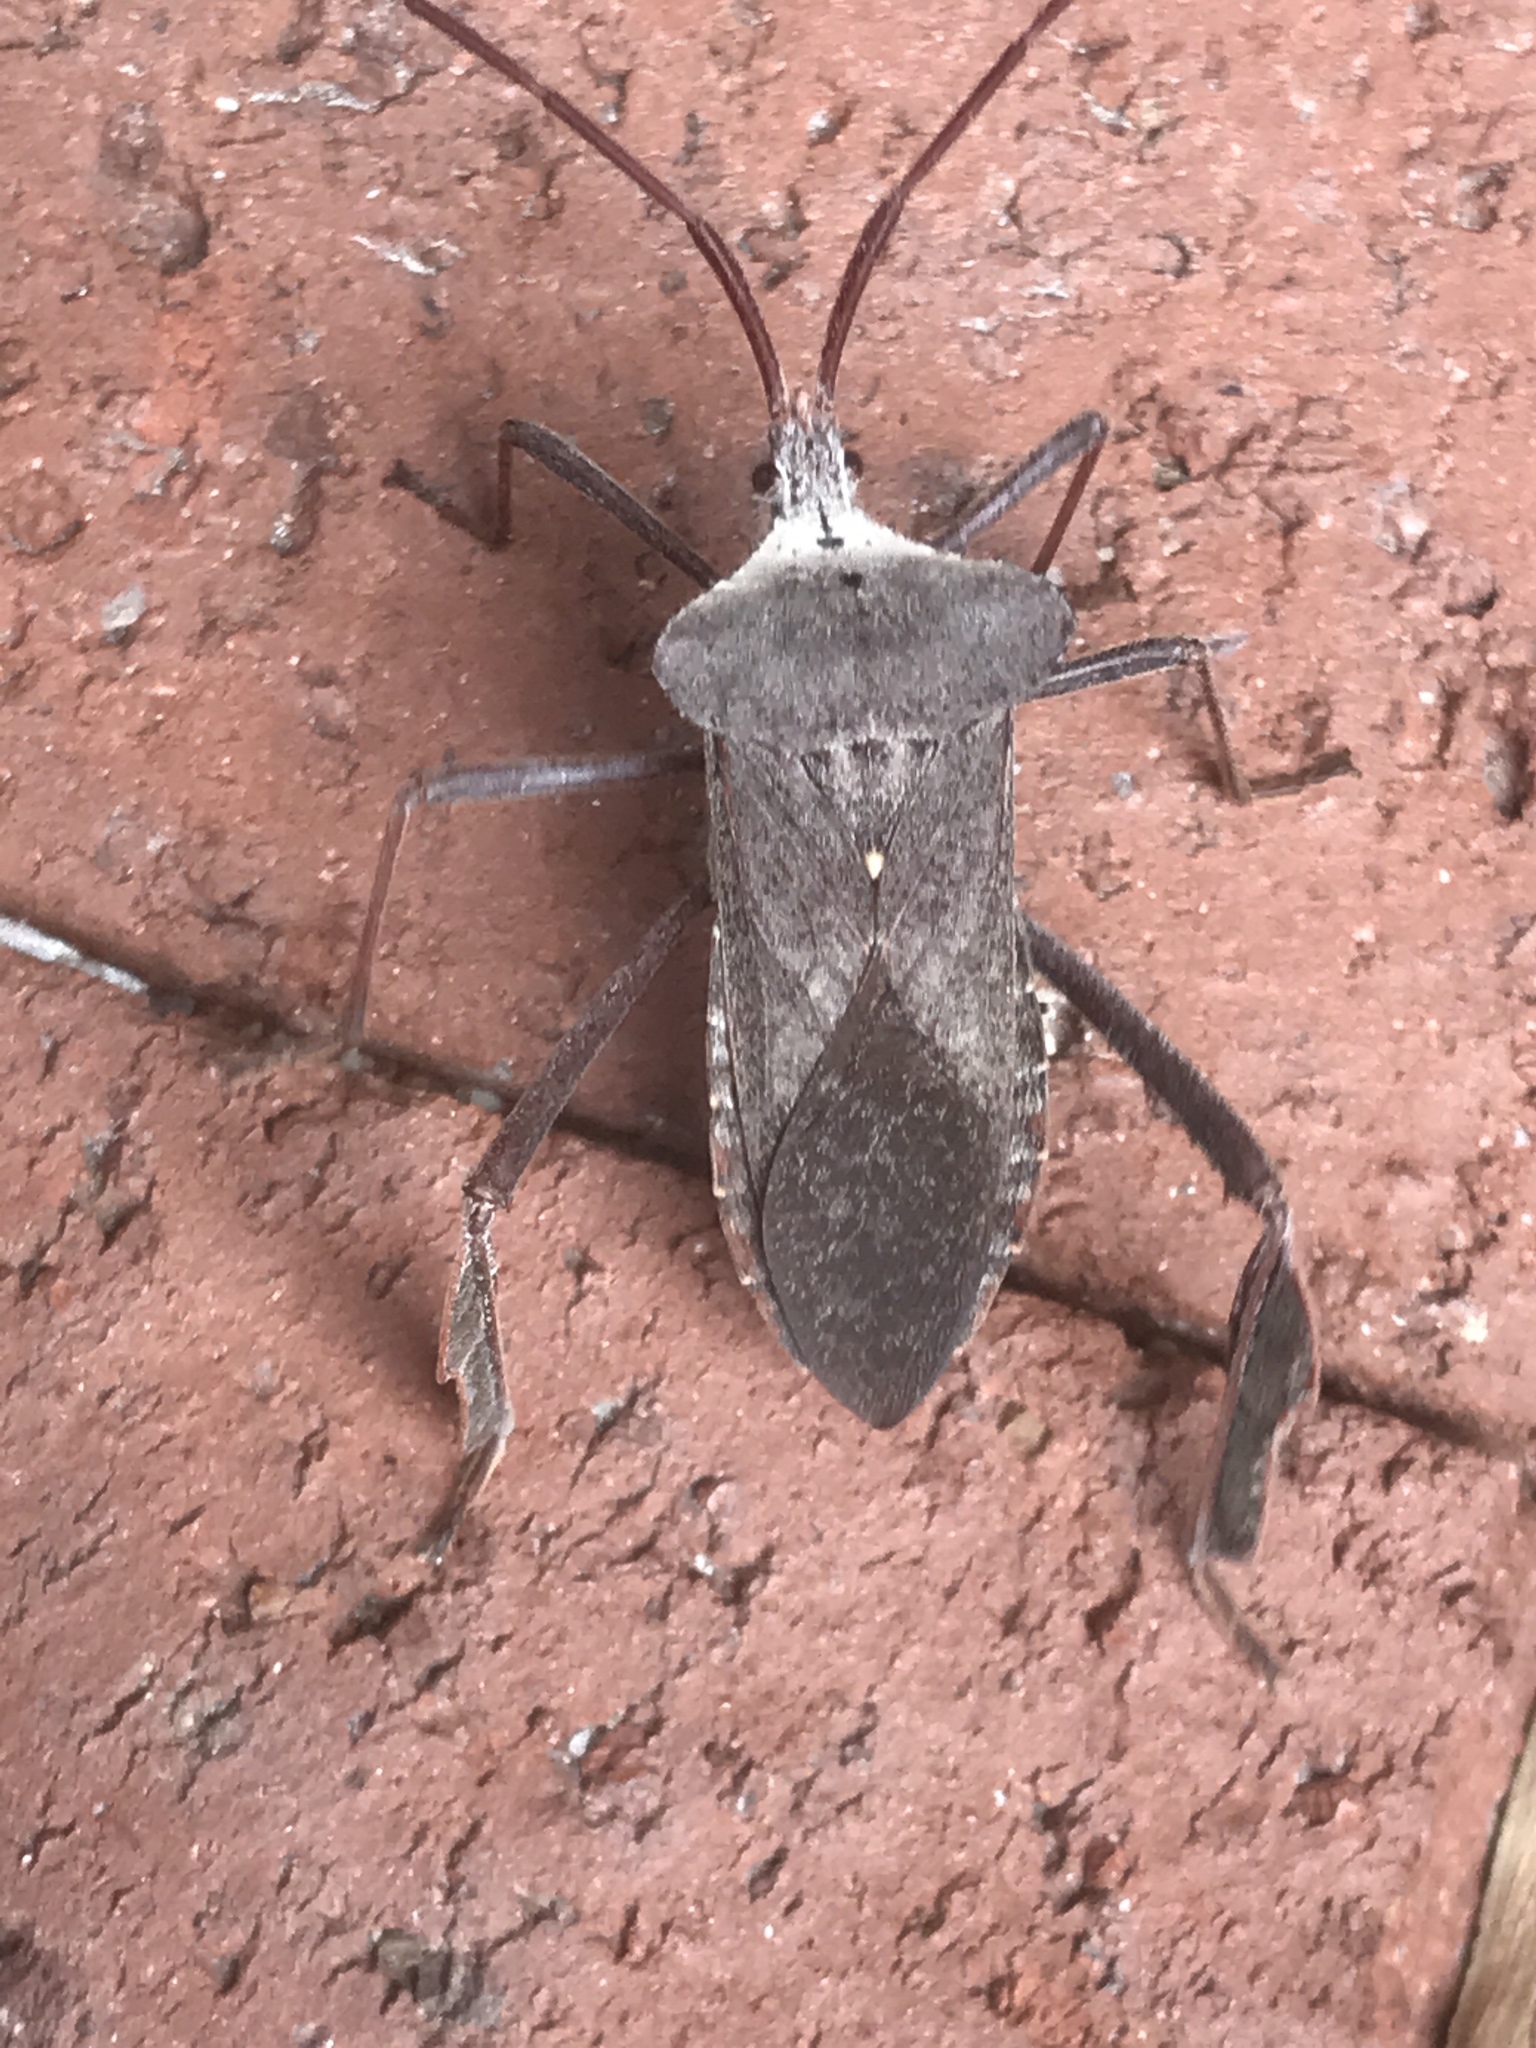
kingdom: Animalia
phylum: Arthropoda
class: Insecta
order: Hemiptera
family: Coreidae
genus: Acanthocephala
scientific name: Acanthocephala declivis
